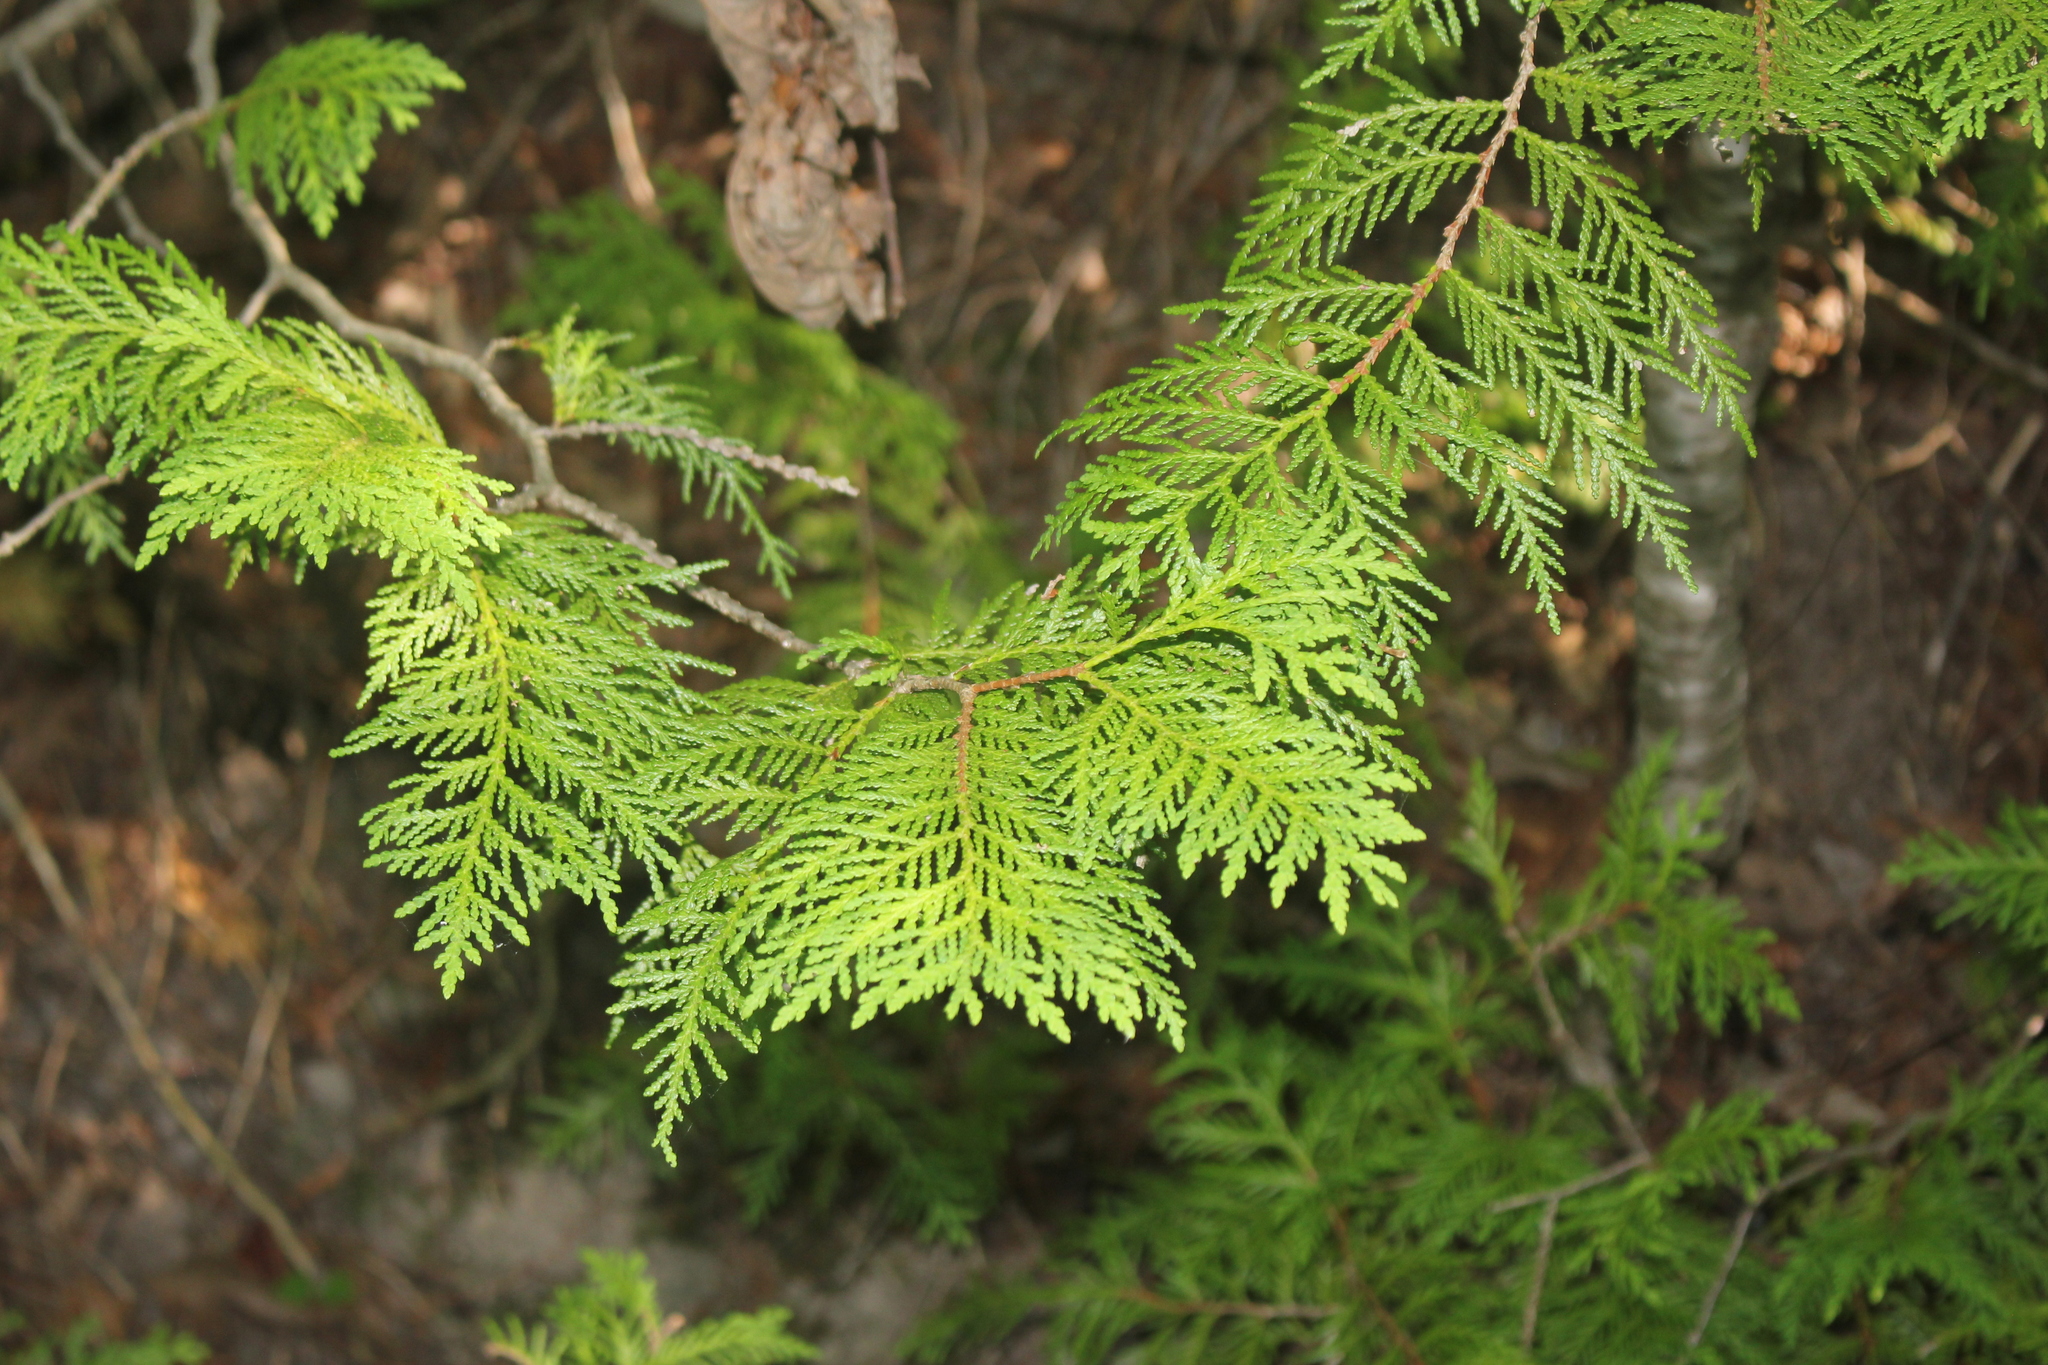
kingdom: Plantae
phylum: Tracheophyta
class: Pinopsida
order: Pinales
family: Cupressaceae
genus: Thuja
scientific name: Thuja occidentalis
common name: Northern white-cedar
